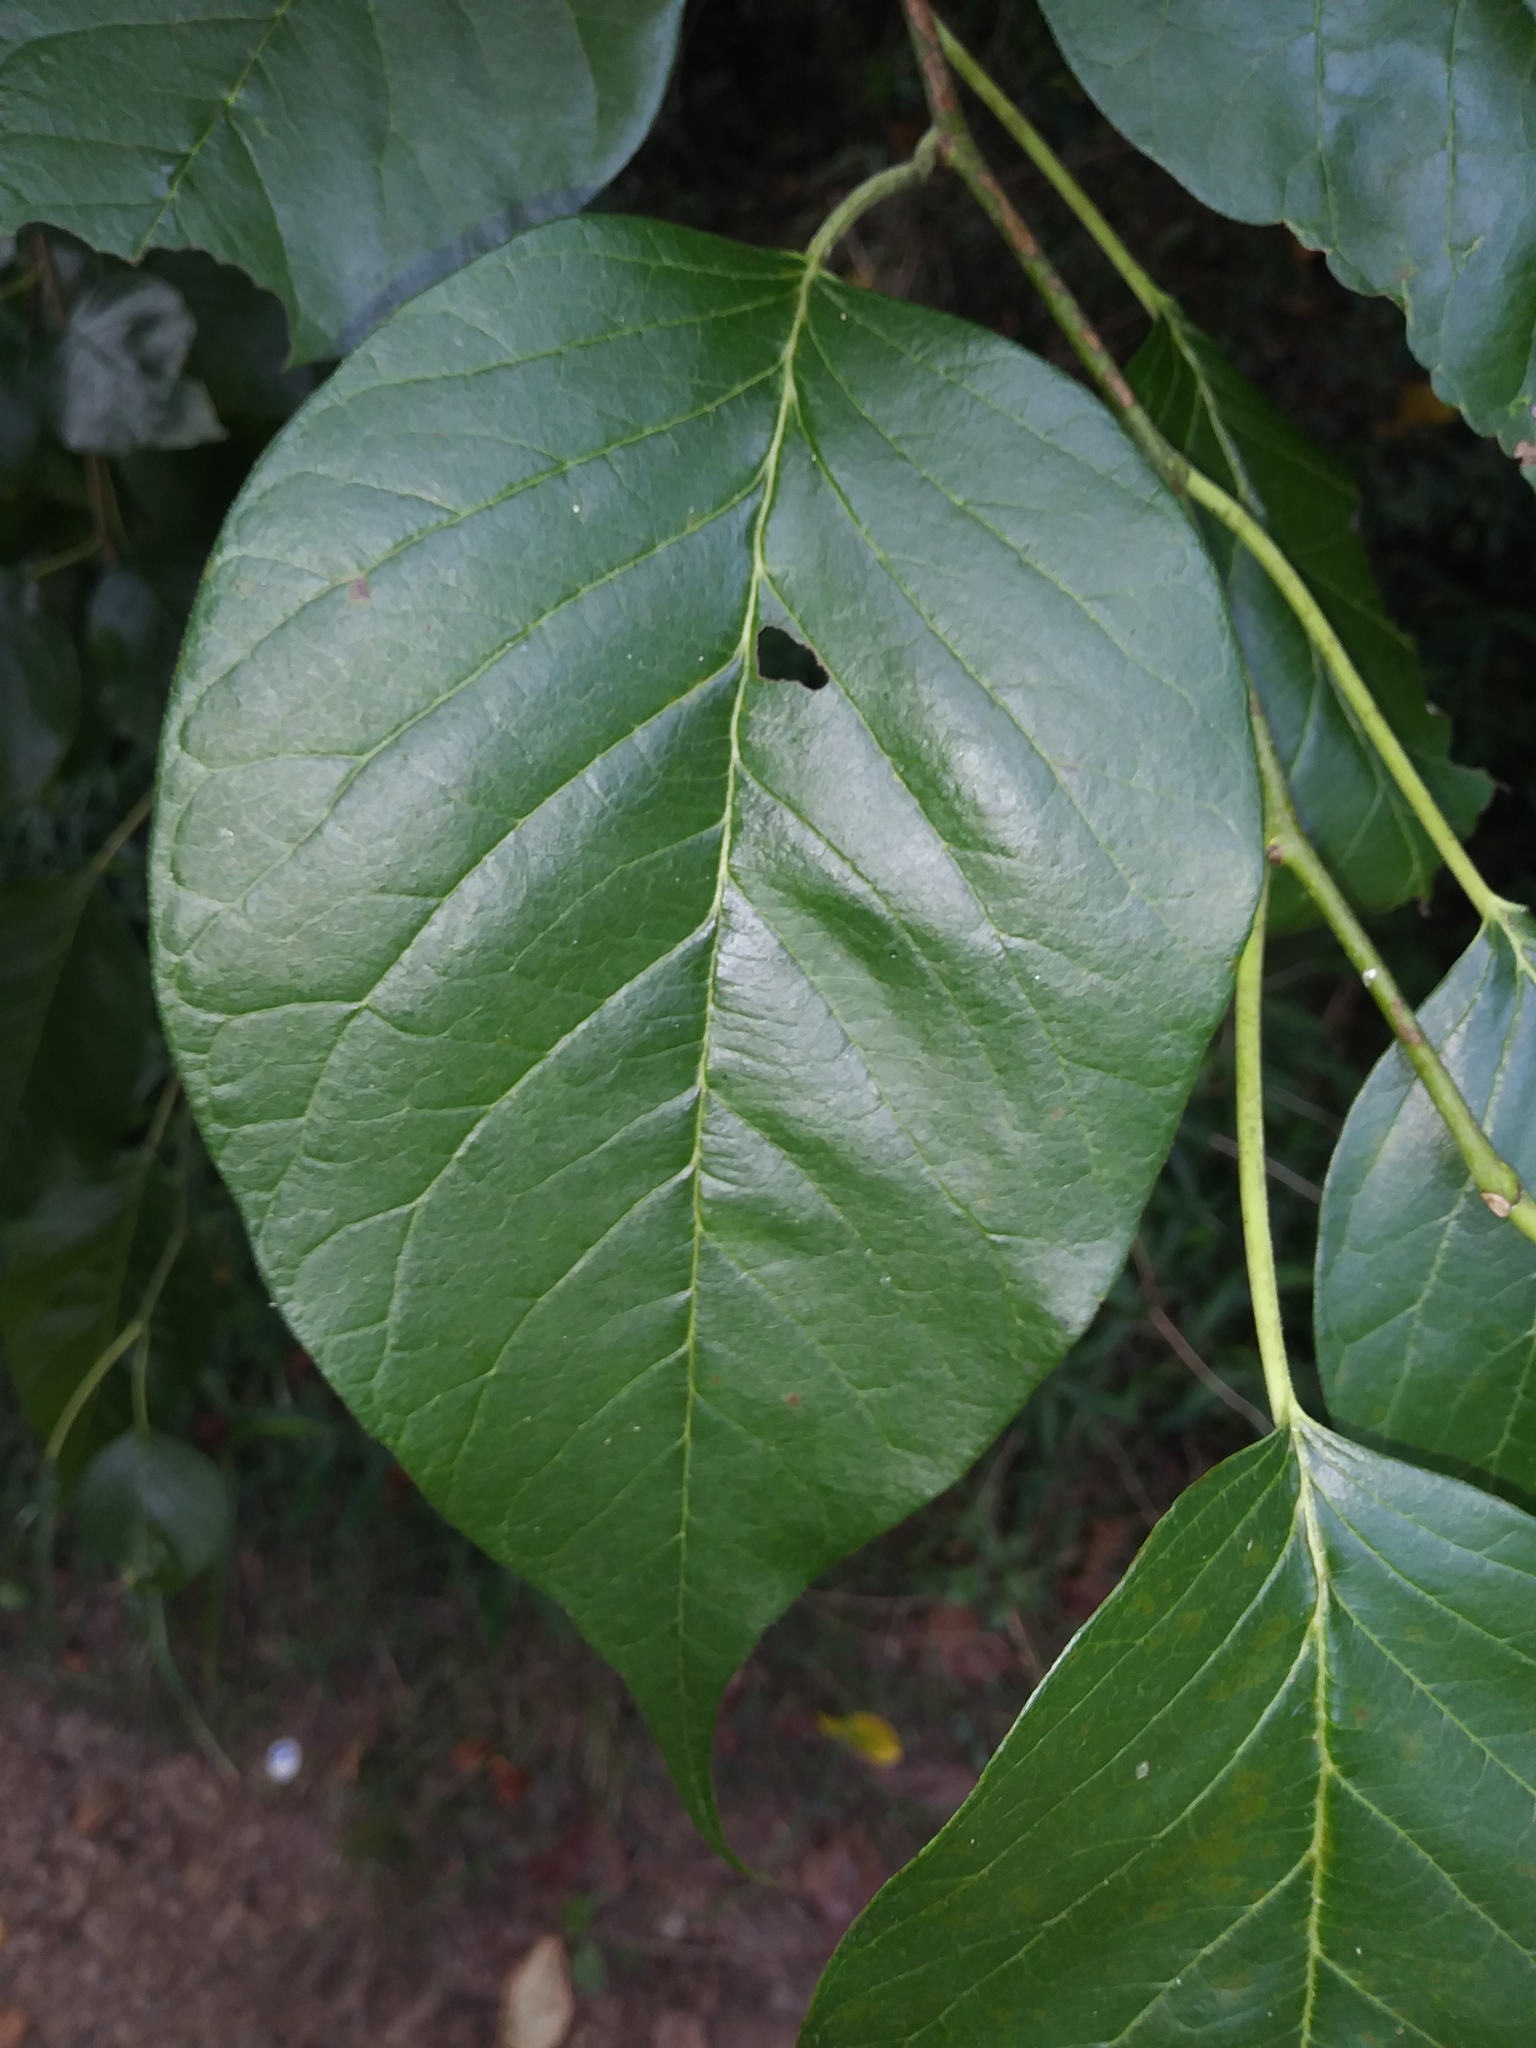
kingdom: Plantae
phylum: Tracheophyta
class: Magnoliopsida
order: Rosales
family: Moraceae
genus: Maclura
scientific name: Maclura pomifera
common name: Osage-orange
